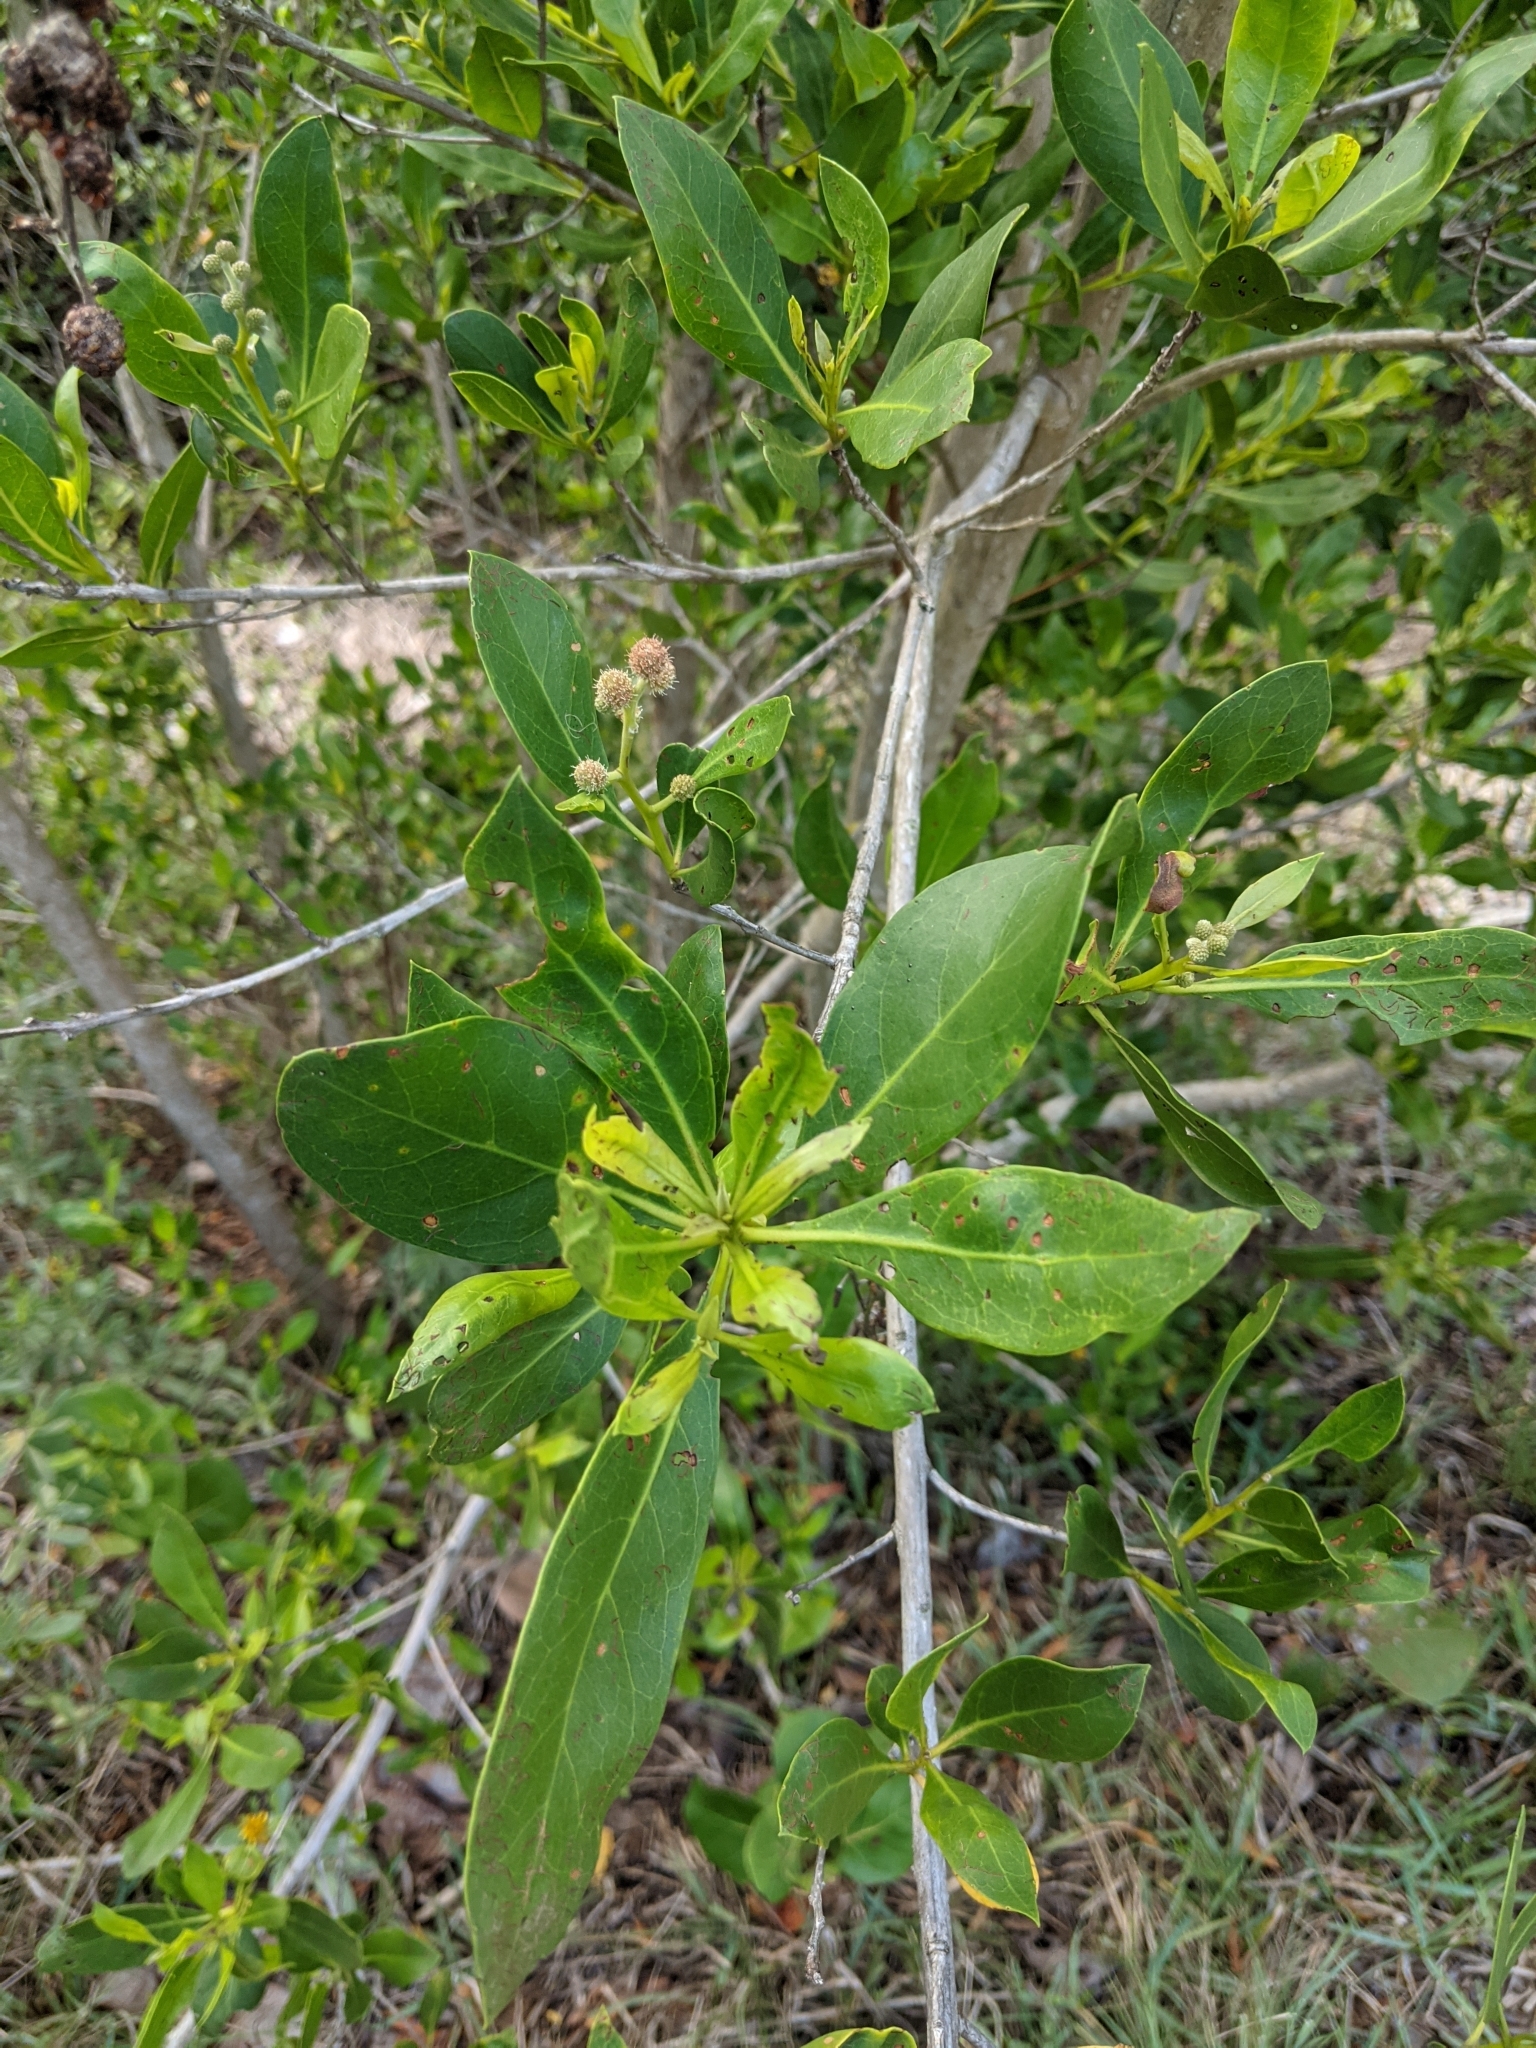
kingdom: Plantae
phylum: Tracheophyta
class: Magnoliopsida
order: Myrtales
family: Combretaceae
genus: Conocarpus
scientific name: Conocarpus erectus
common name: Button mangrove
